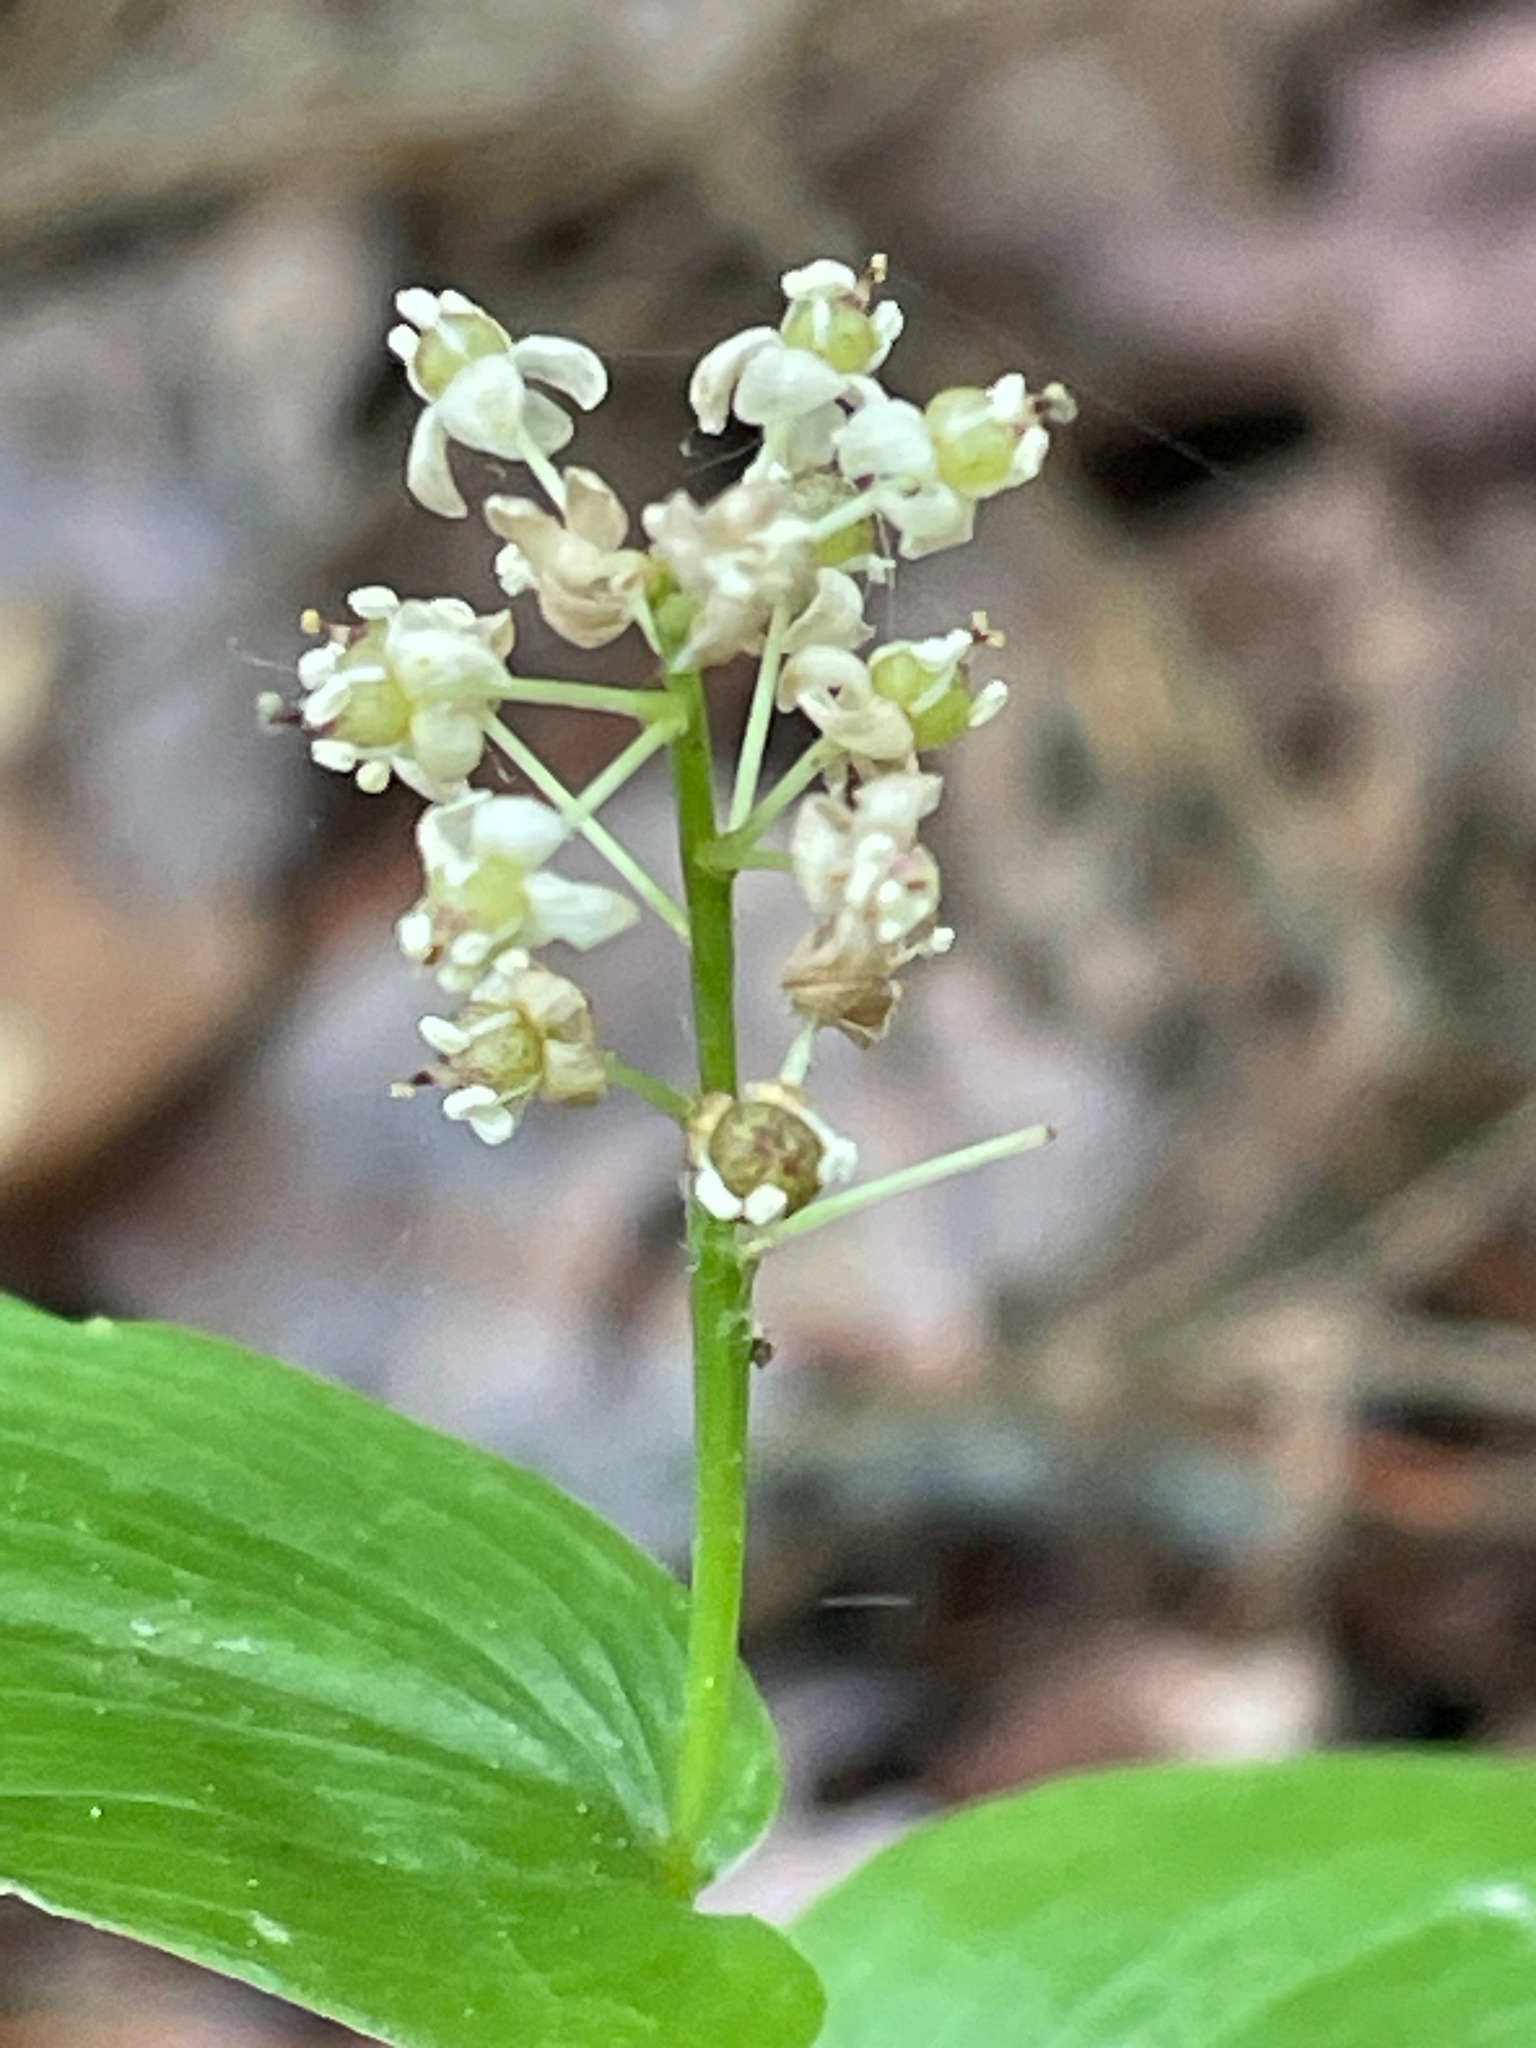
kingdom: Plantae
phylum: Tracheophyta
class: Liliopsida
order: Asparagales
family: Asparagaceae
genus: Maianthemum
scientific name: Maianthemum canadense
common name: False lily-of-the-valley
